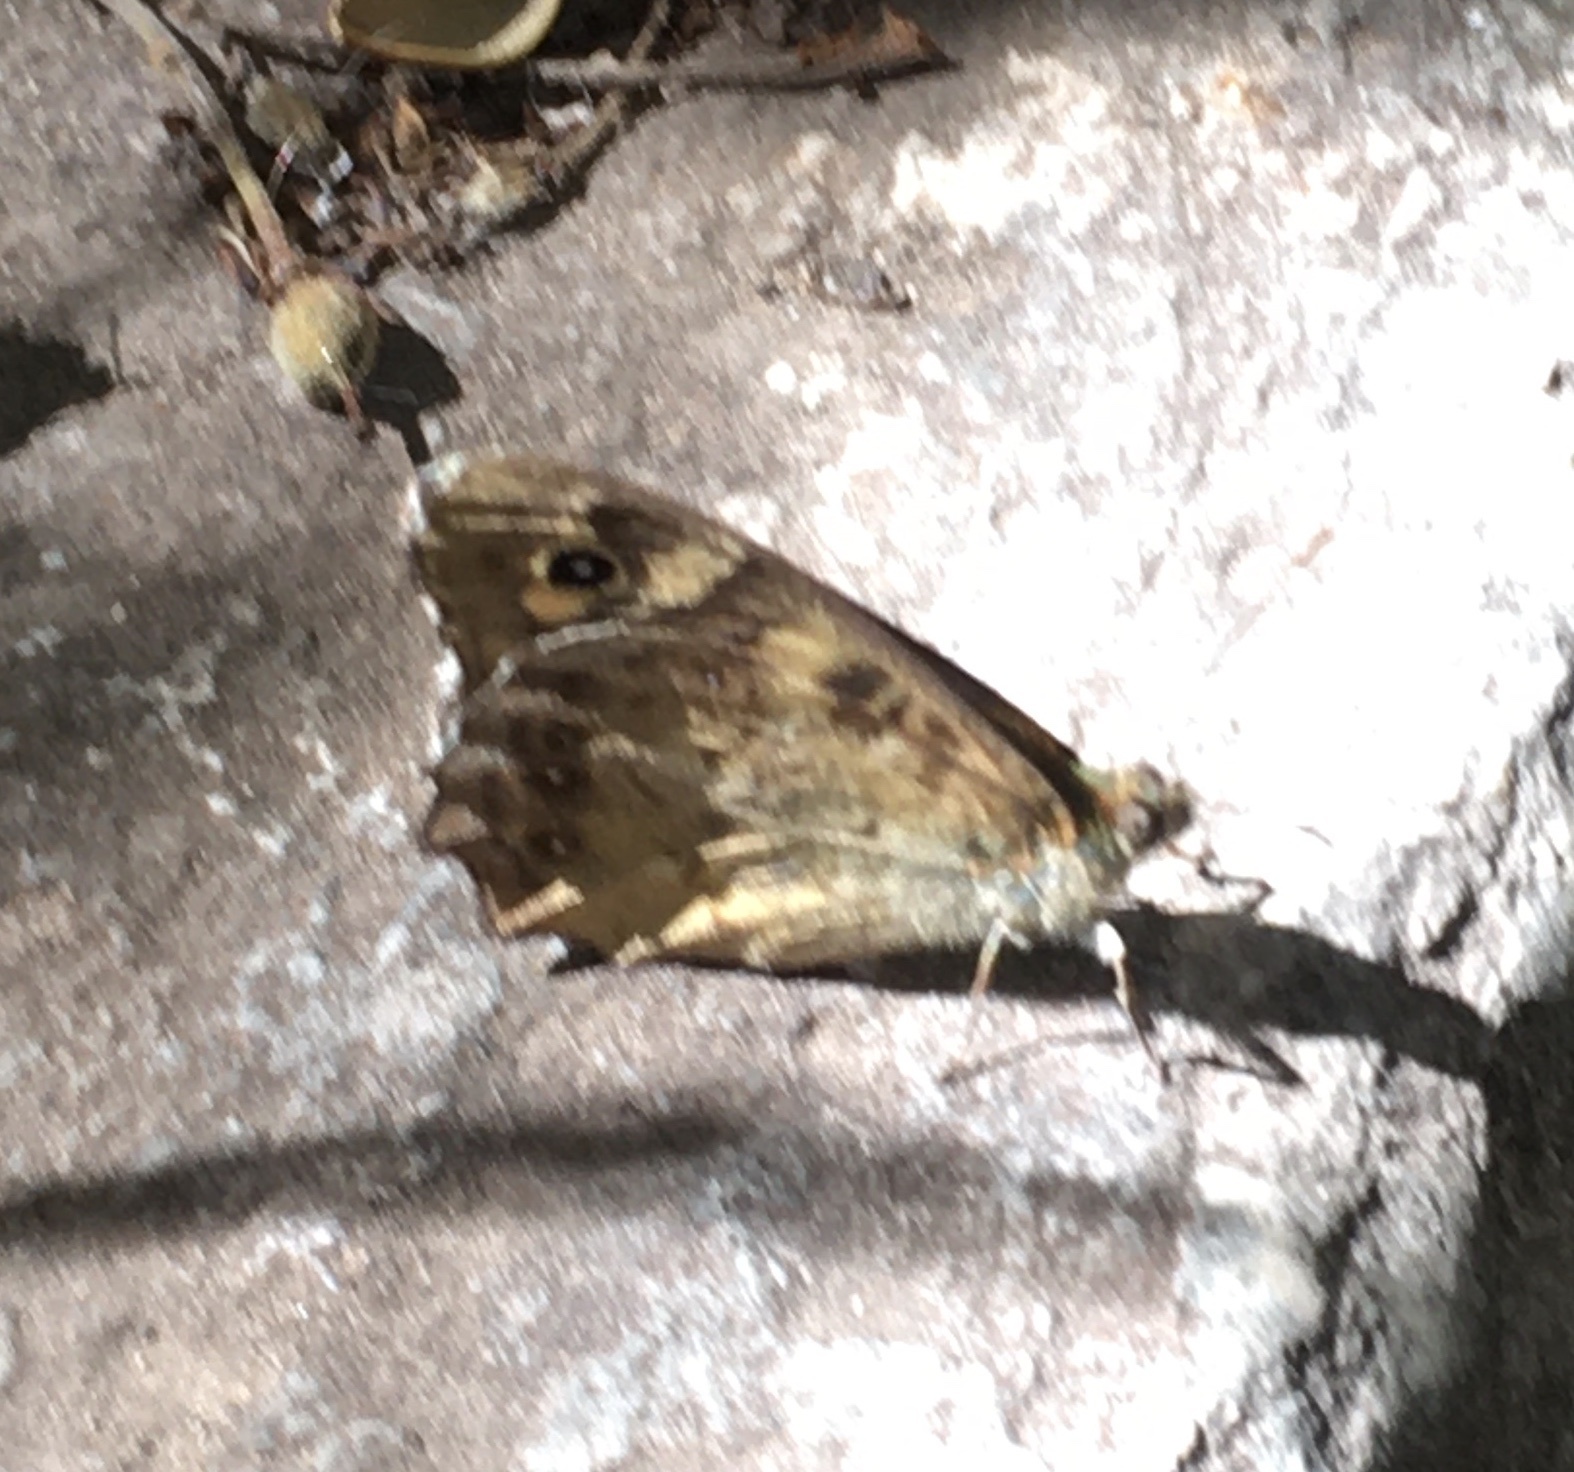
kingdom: Animalia
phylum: Arthropoda
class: Insecta
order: Lepidoptera
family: Nymphalidae
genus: Pararge
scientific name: Pararge aegeria
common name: Speckled wood
